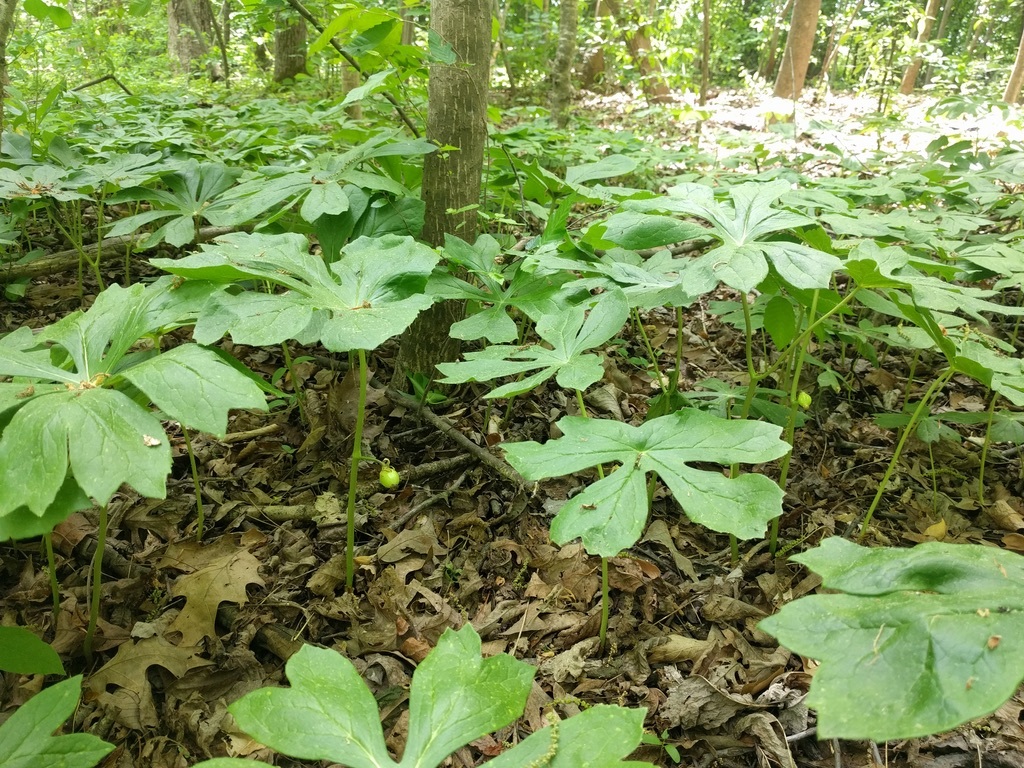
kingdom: Plantae
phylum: Tracheophyta
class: Magnoliopsida
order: Ranunculales
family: Berberidaceae
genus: Podophyllum
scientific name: Podophyllum peltatum
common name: Wild mandrake
